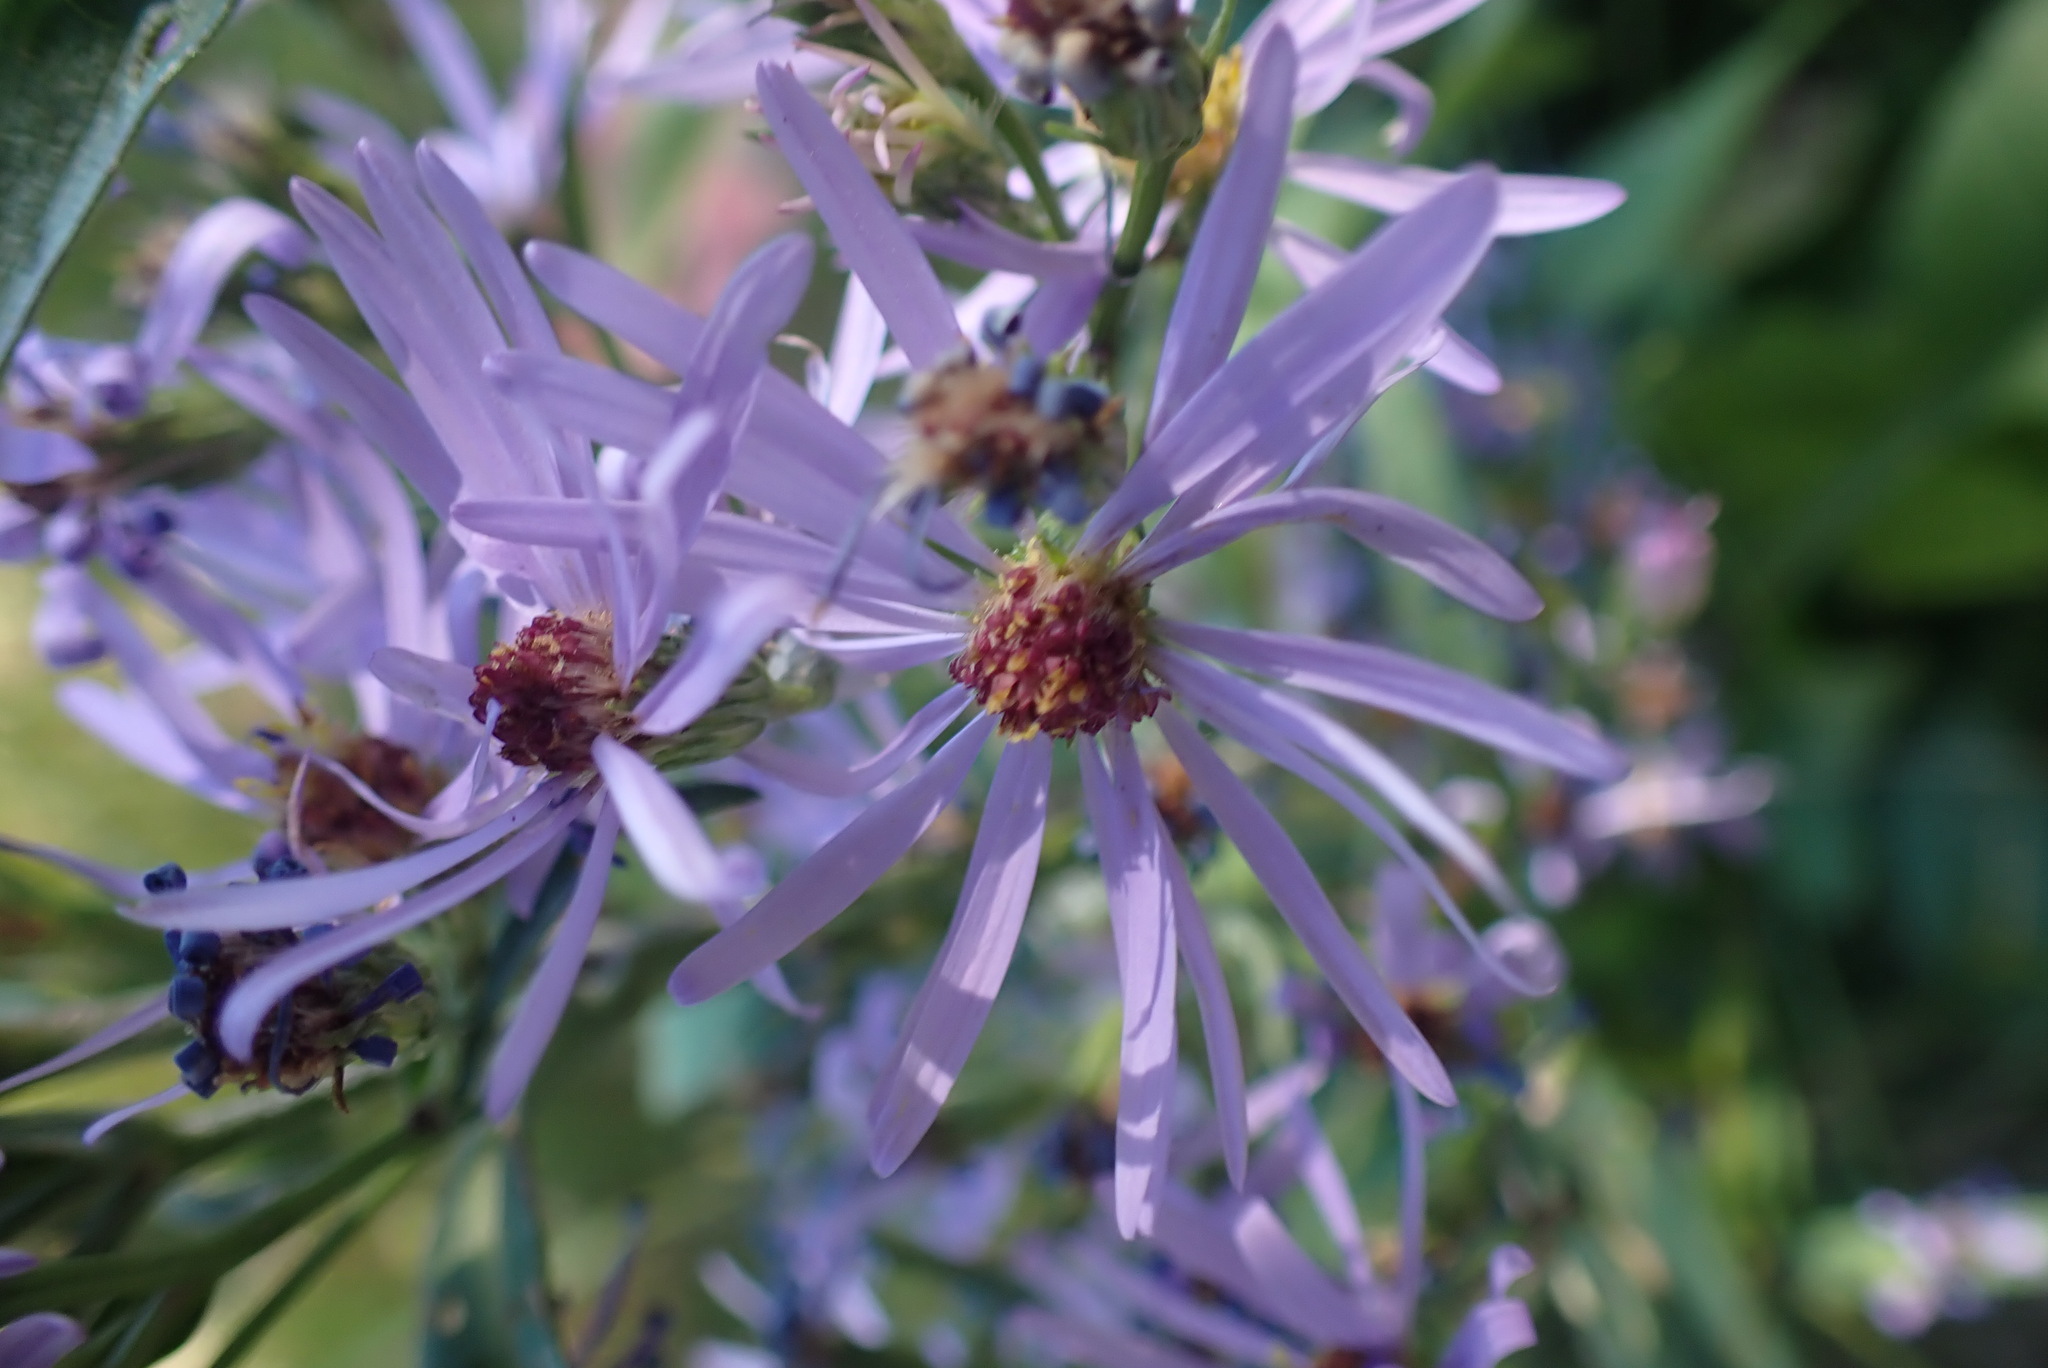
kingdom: Plantae
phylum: Tracheophyta
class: Magnoliopsida
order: Asterales
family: Asteraceae
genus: Symphyotrichum
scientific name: Symphyotrichum ciliolatum
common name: Fringed blue aster
